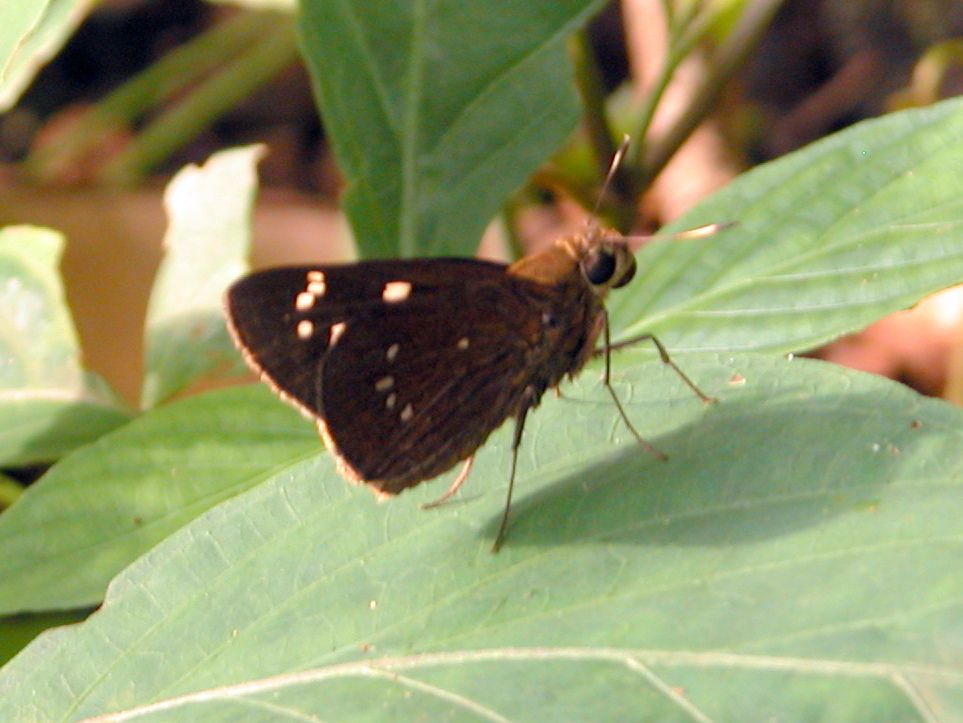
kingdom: Animalia
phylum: Arthropoda
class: Insecta
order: Lepidoptera
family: Hesperiidae
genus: Pelopidas
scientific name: Pelopidas assamensis
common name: Great swift
